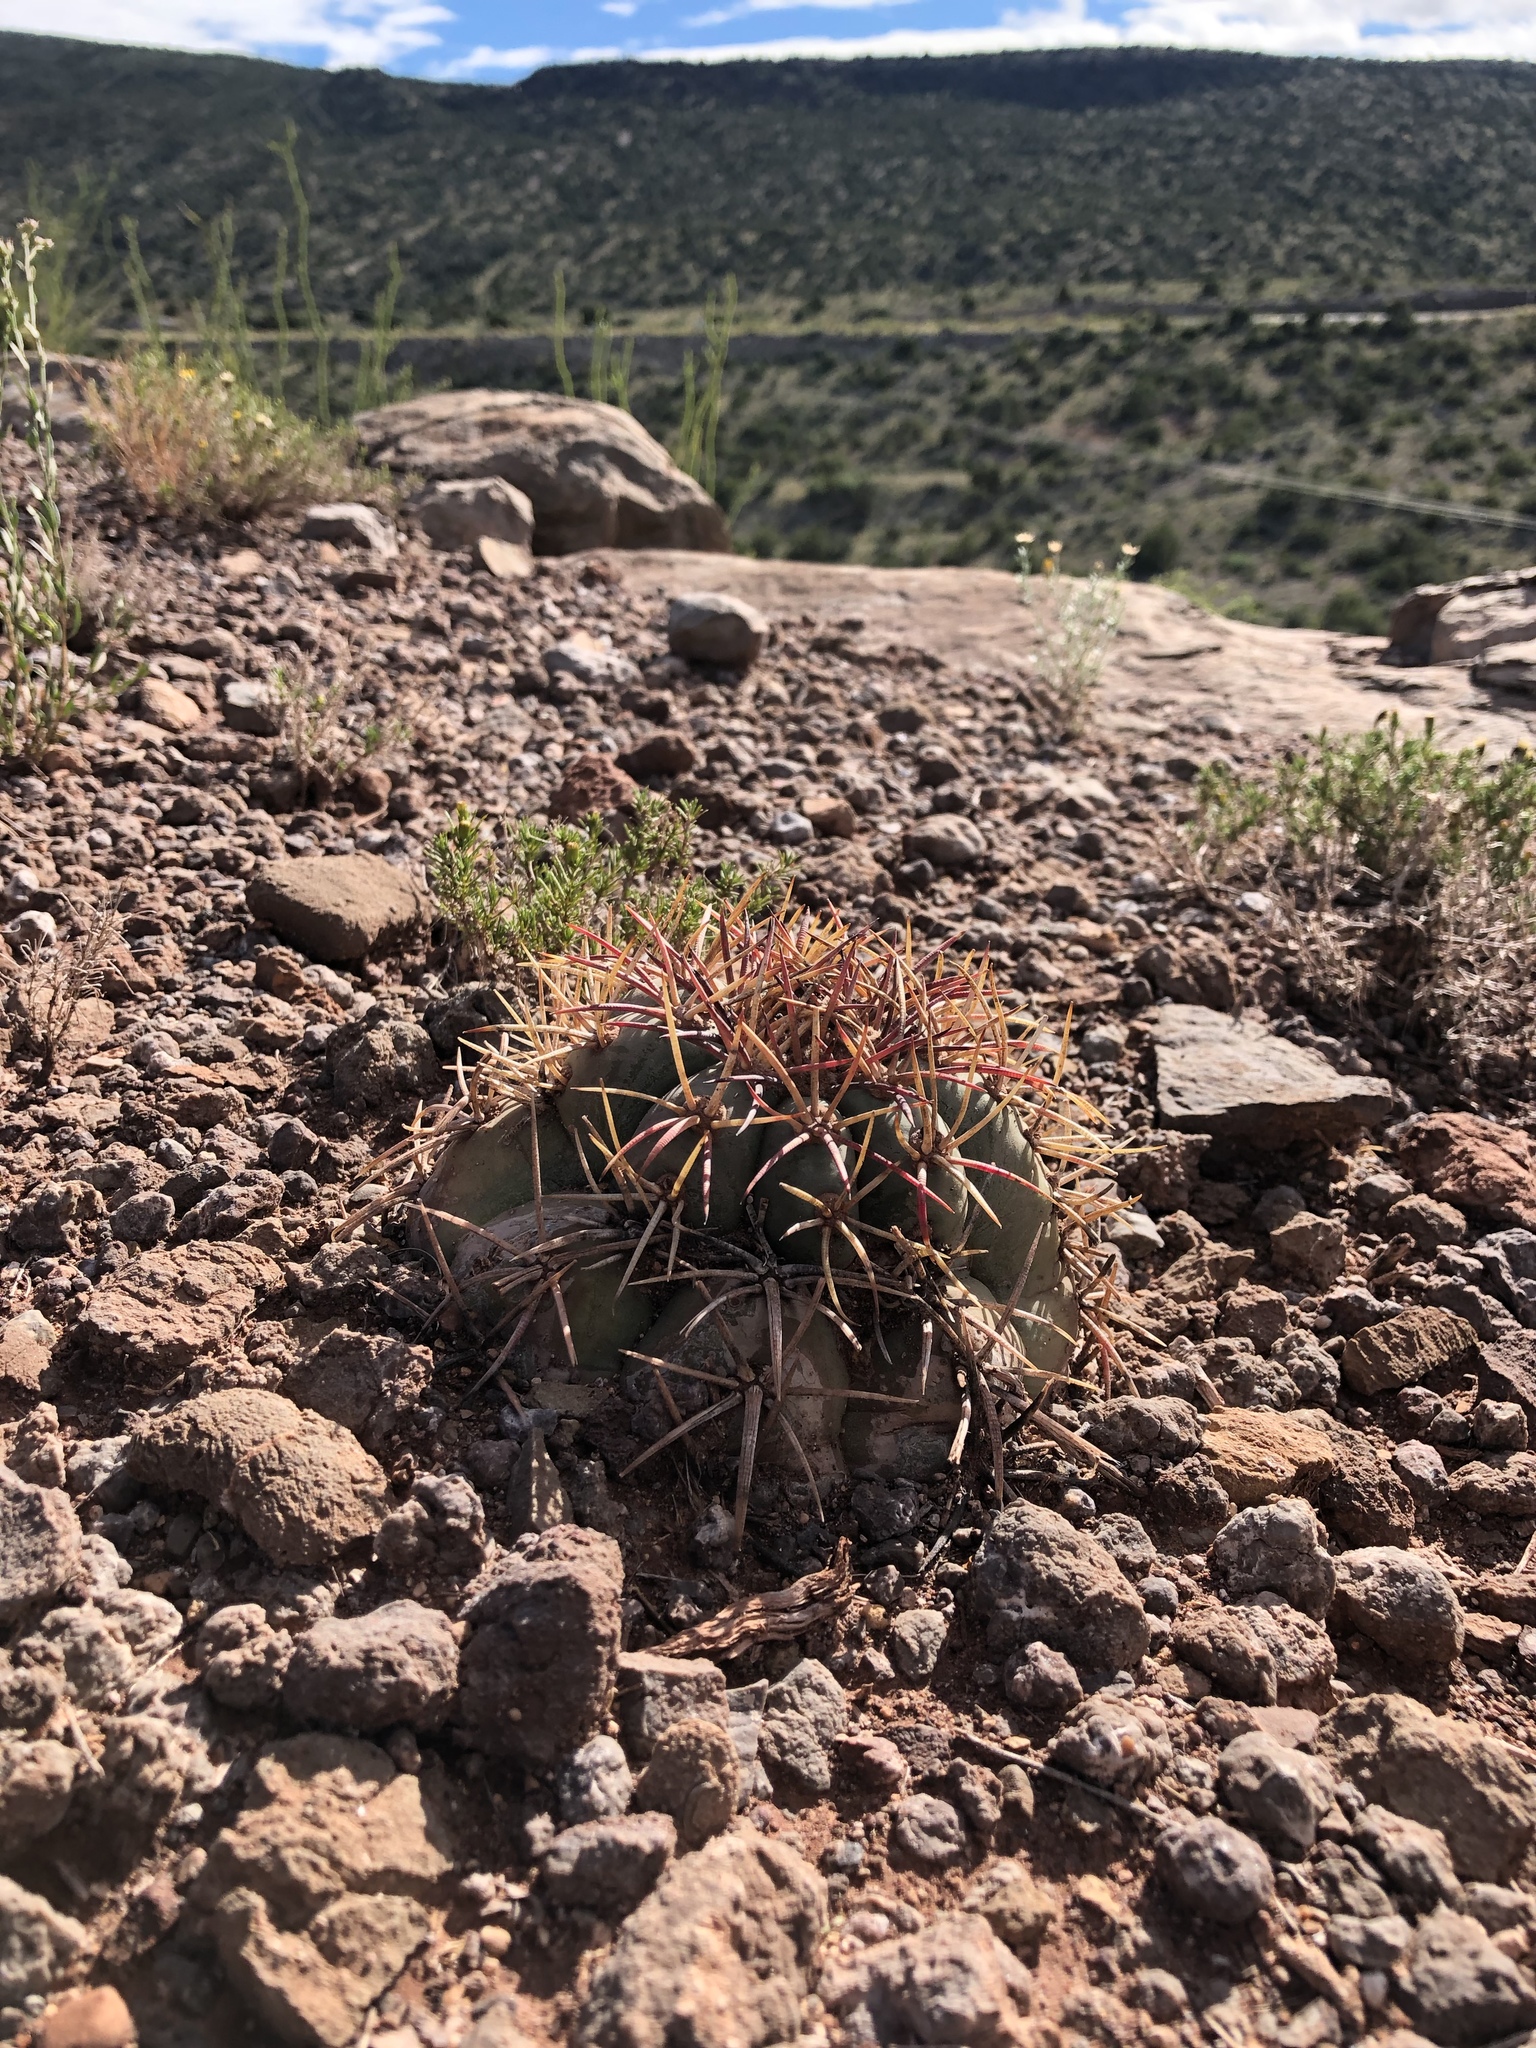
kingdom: Plantae
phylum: Tracheophyta
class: Magnoliopsida
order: Caryophyllales
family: Cactaceae
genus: Echinocactus
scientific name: Echinocactus horizonthalonius
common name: Devilshead
